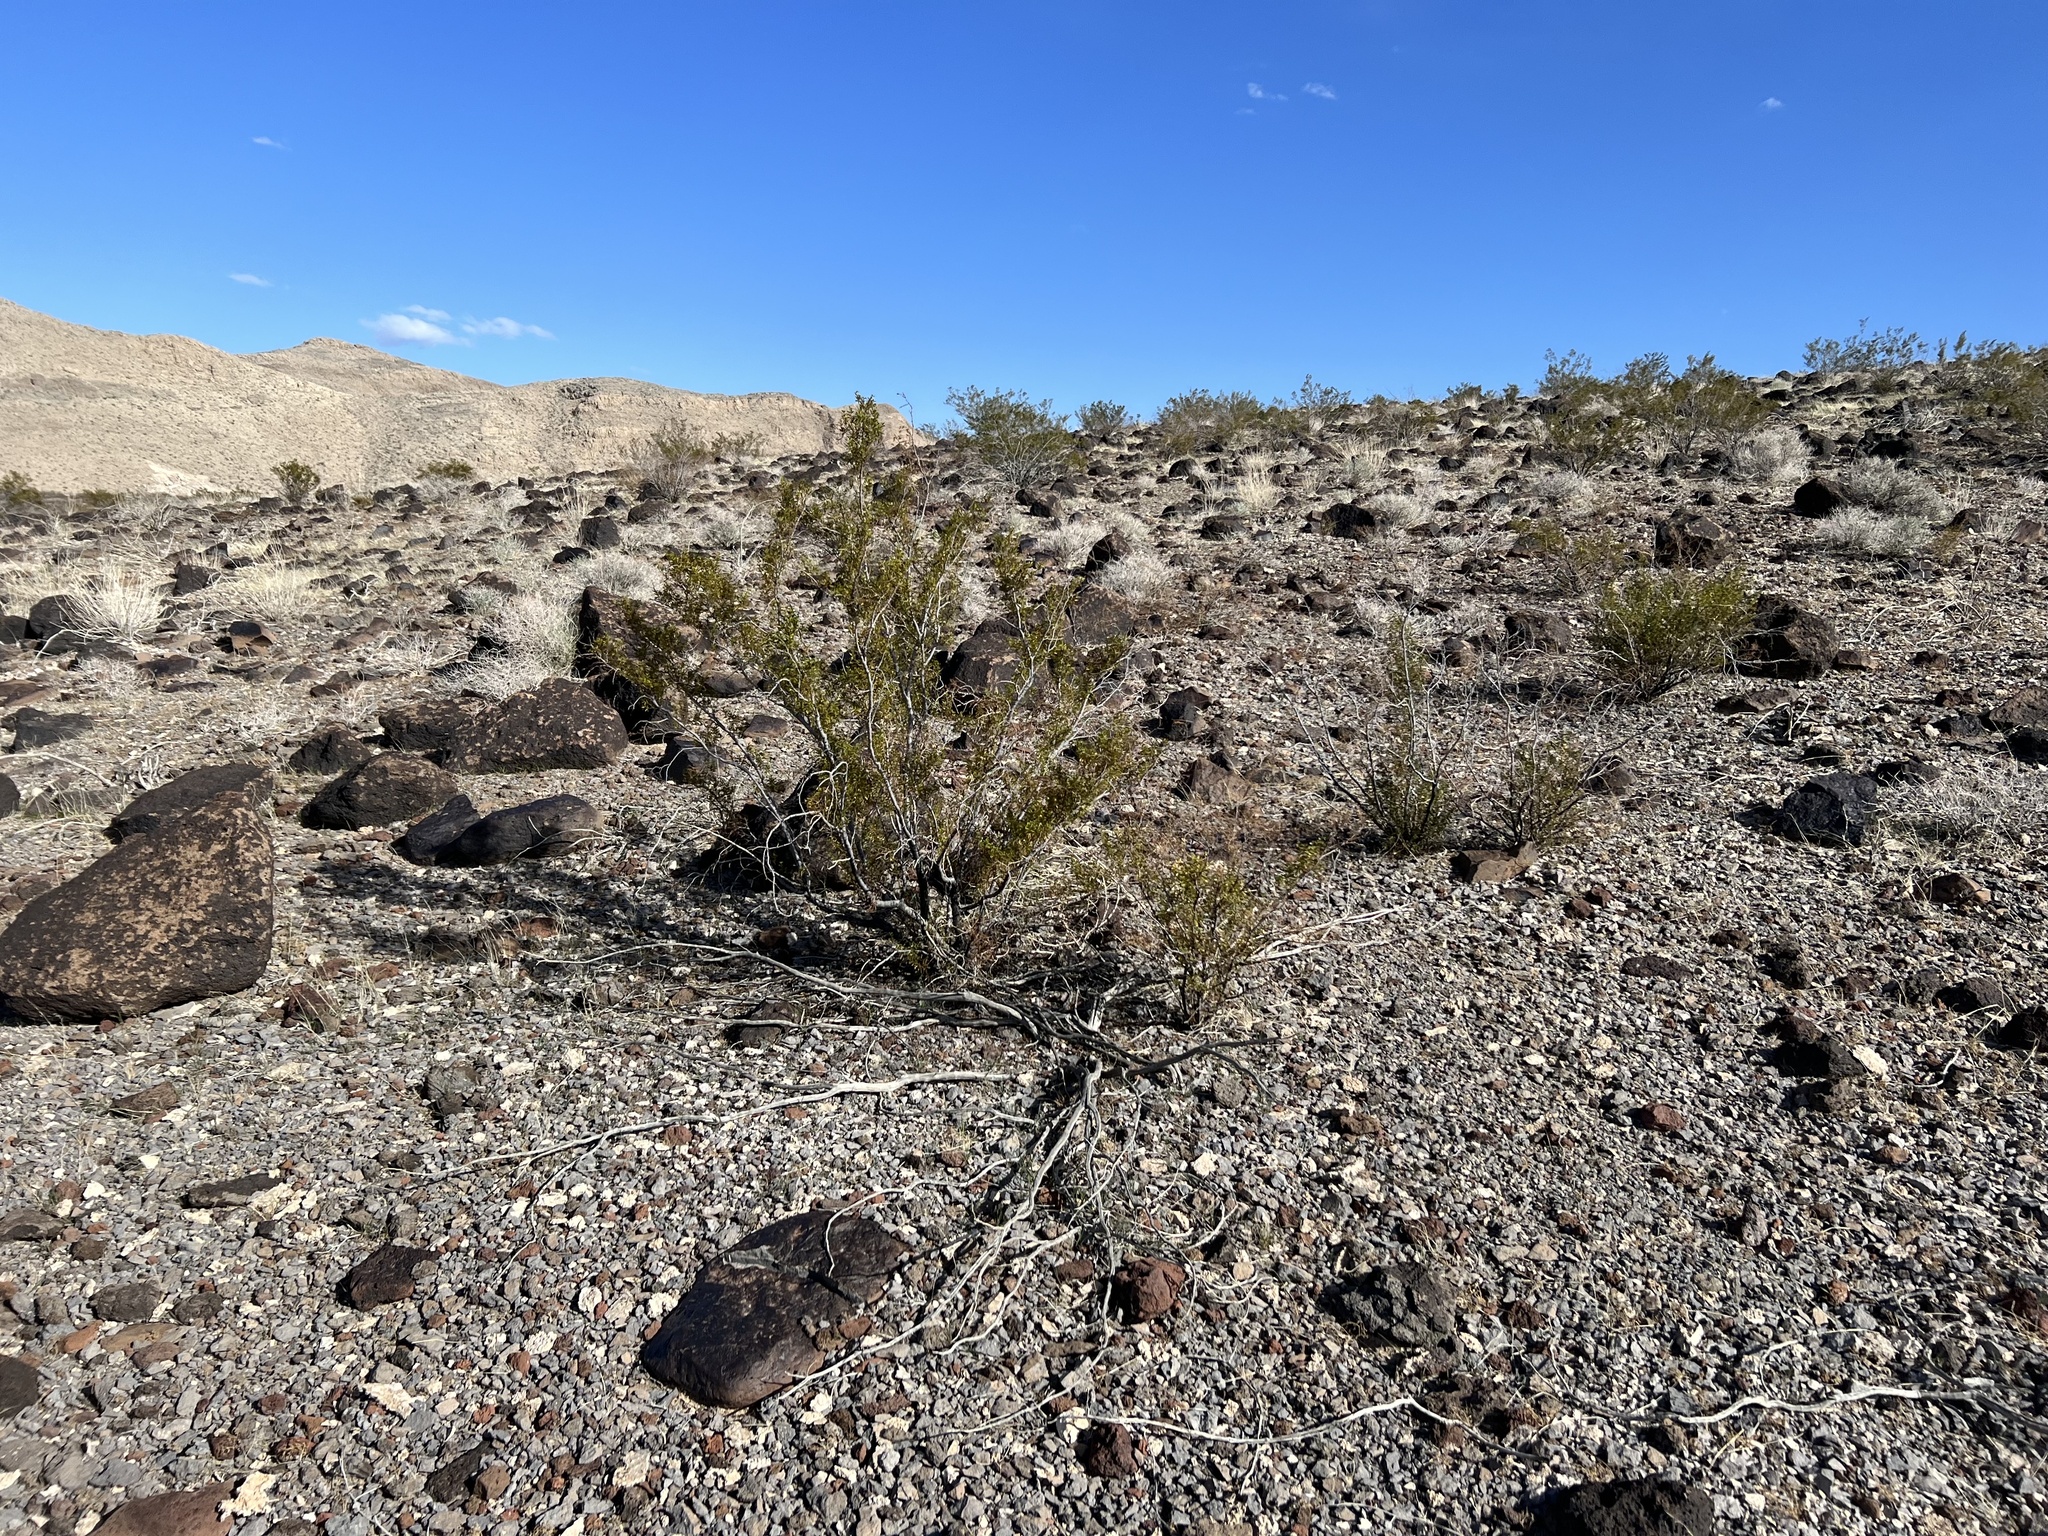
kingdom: Plantae
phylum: Tracheophyta
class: Magnoliopsida
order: Zygophyllales
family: Zygophyllaceae
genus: Larrea
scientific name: Larrea tridentata
